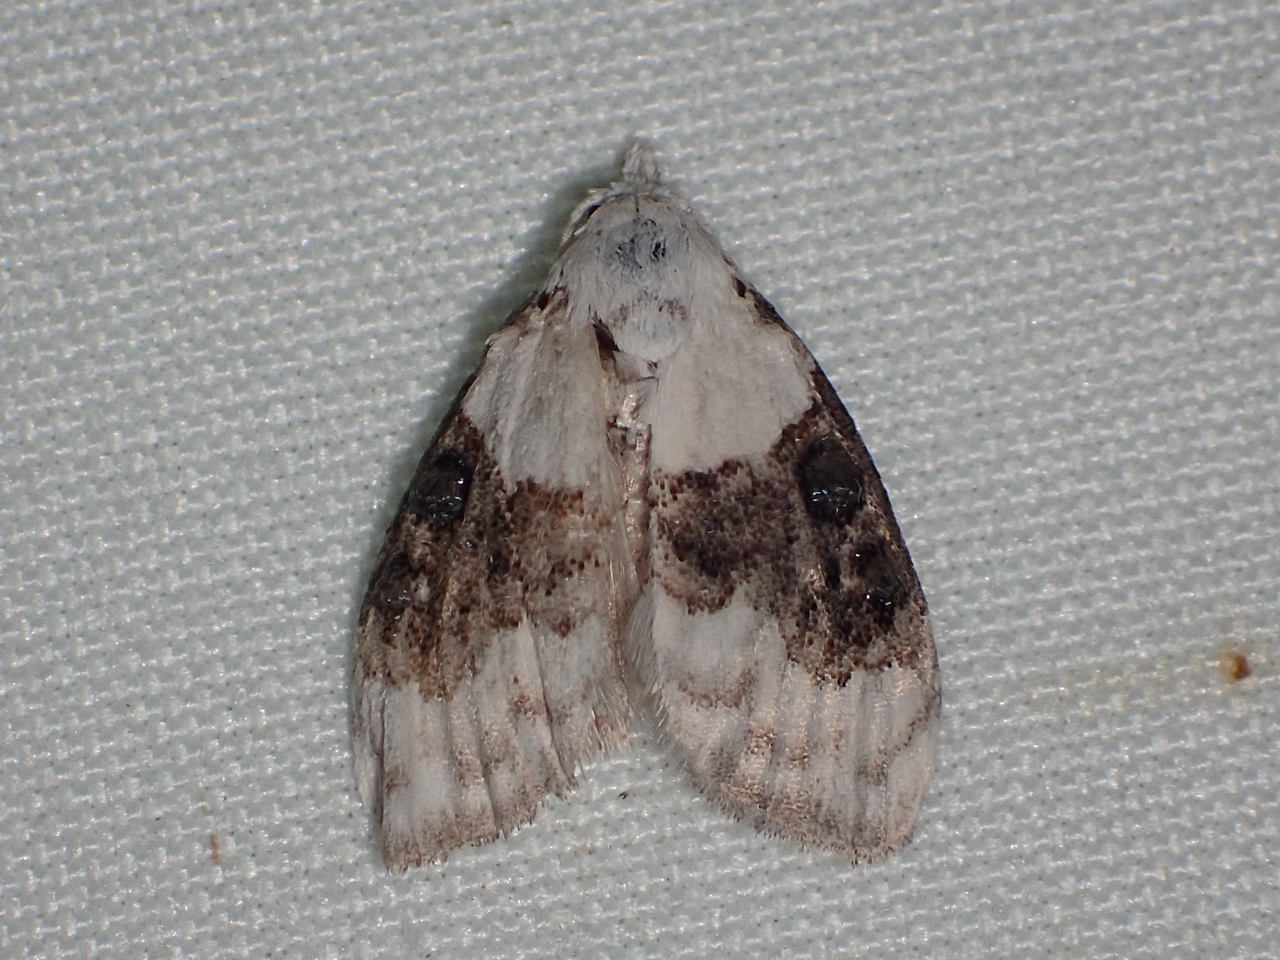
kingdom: Animalia
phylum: Arthropoda
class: Insecta
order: Lepidoptera
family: Nolidae
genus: Nola
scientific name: Nola pustulata
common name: Sharp-blotched nola moth
